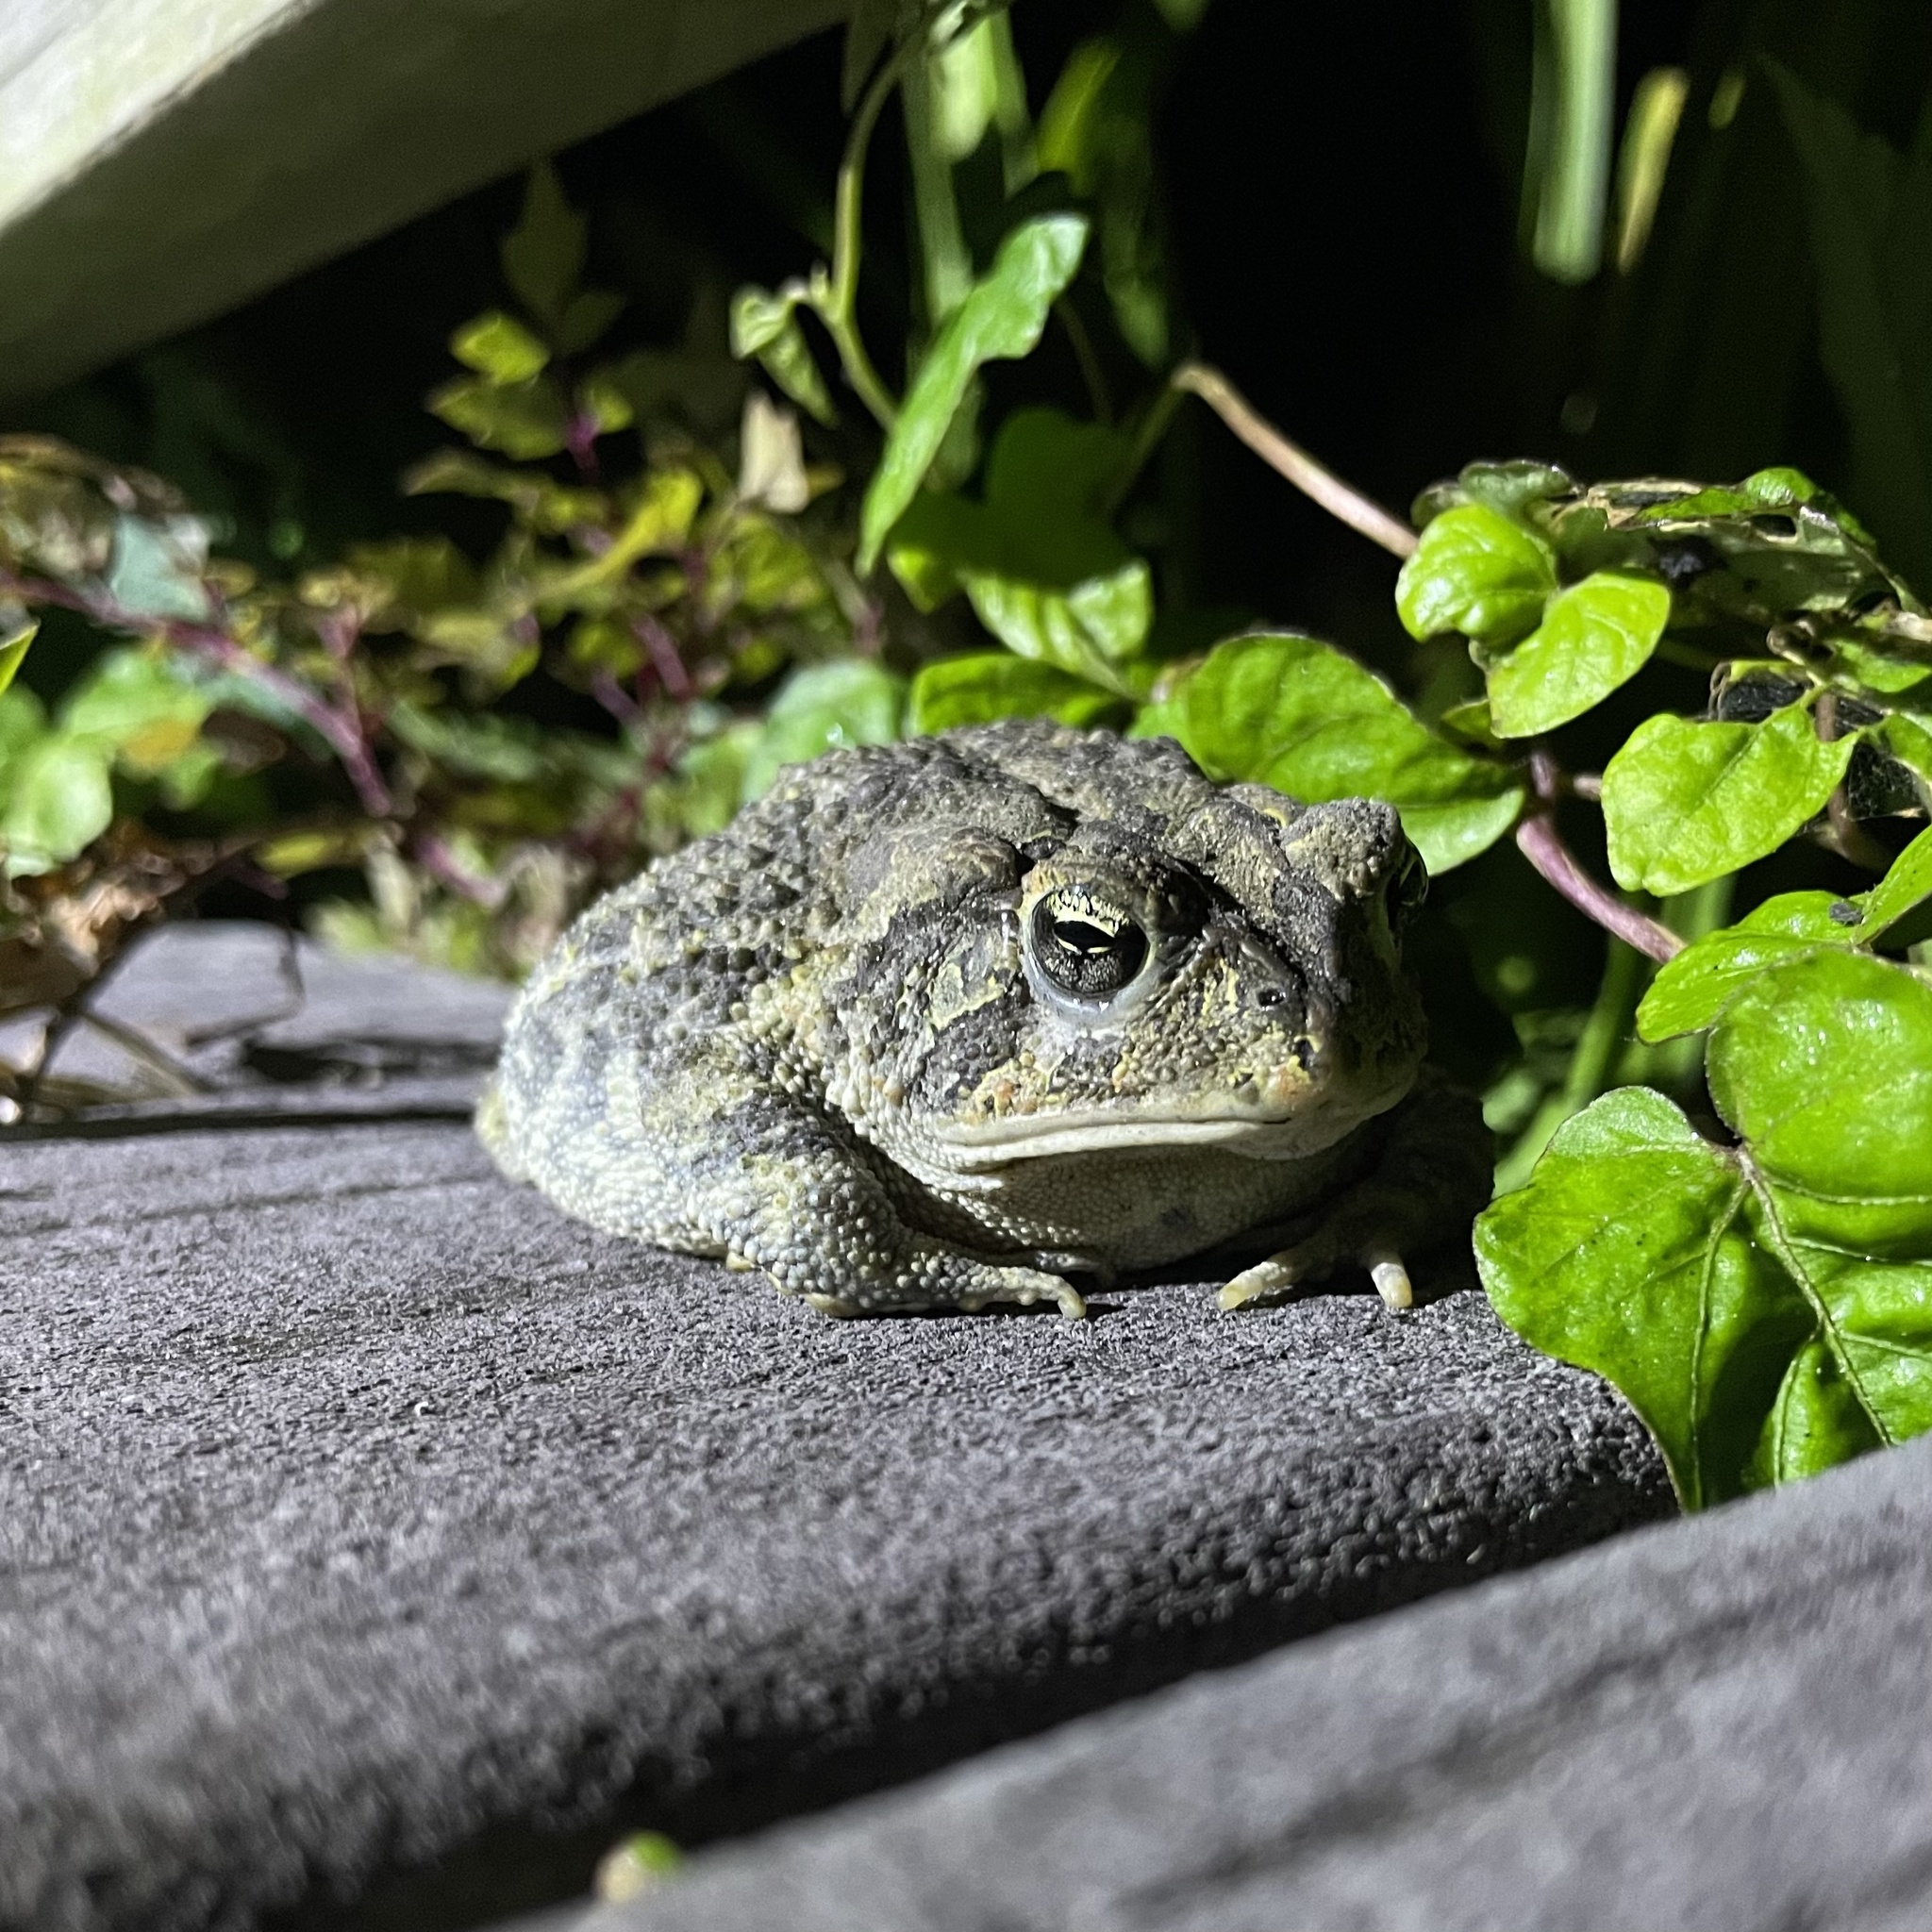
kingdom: Animalia
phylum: Chordata
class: Amphibia
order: Anura
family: Bufonidae
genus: Anaxyrus
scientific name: Anaxyrus terrestris
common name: Southern toad
